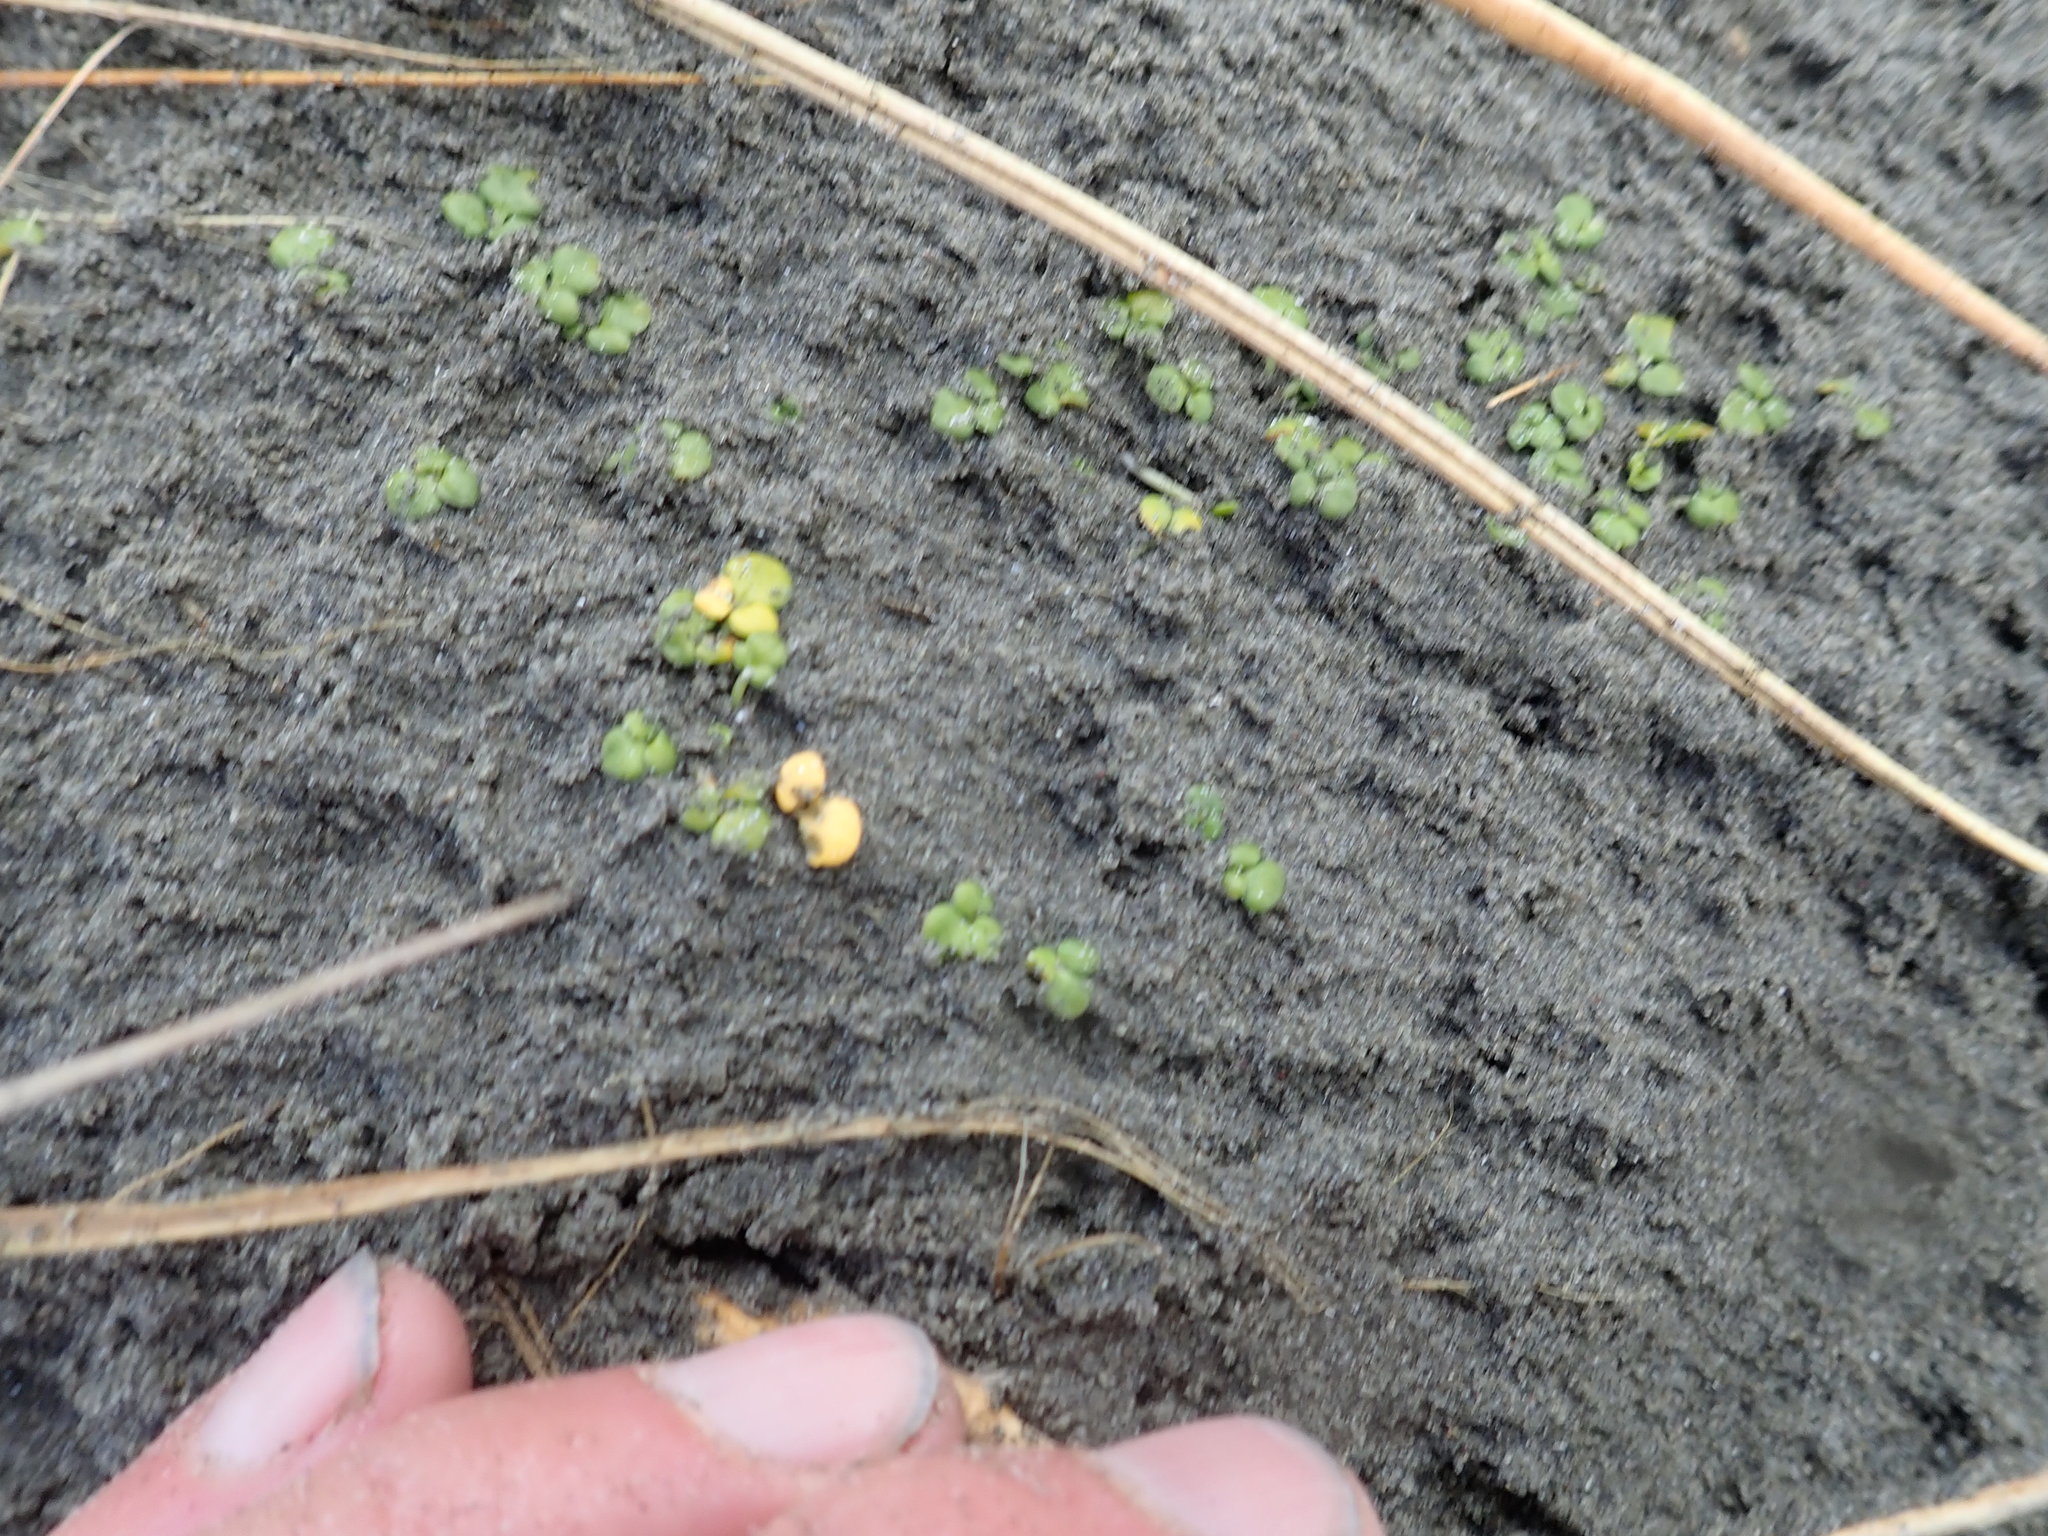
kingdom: Plantae
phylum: Tracheophyta
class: Magnoliopsida
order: Ranunculales
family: Ranunculaceae
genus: Ranunculus
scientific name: Ranunculus acaulis
